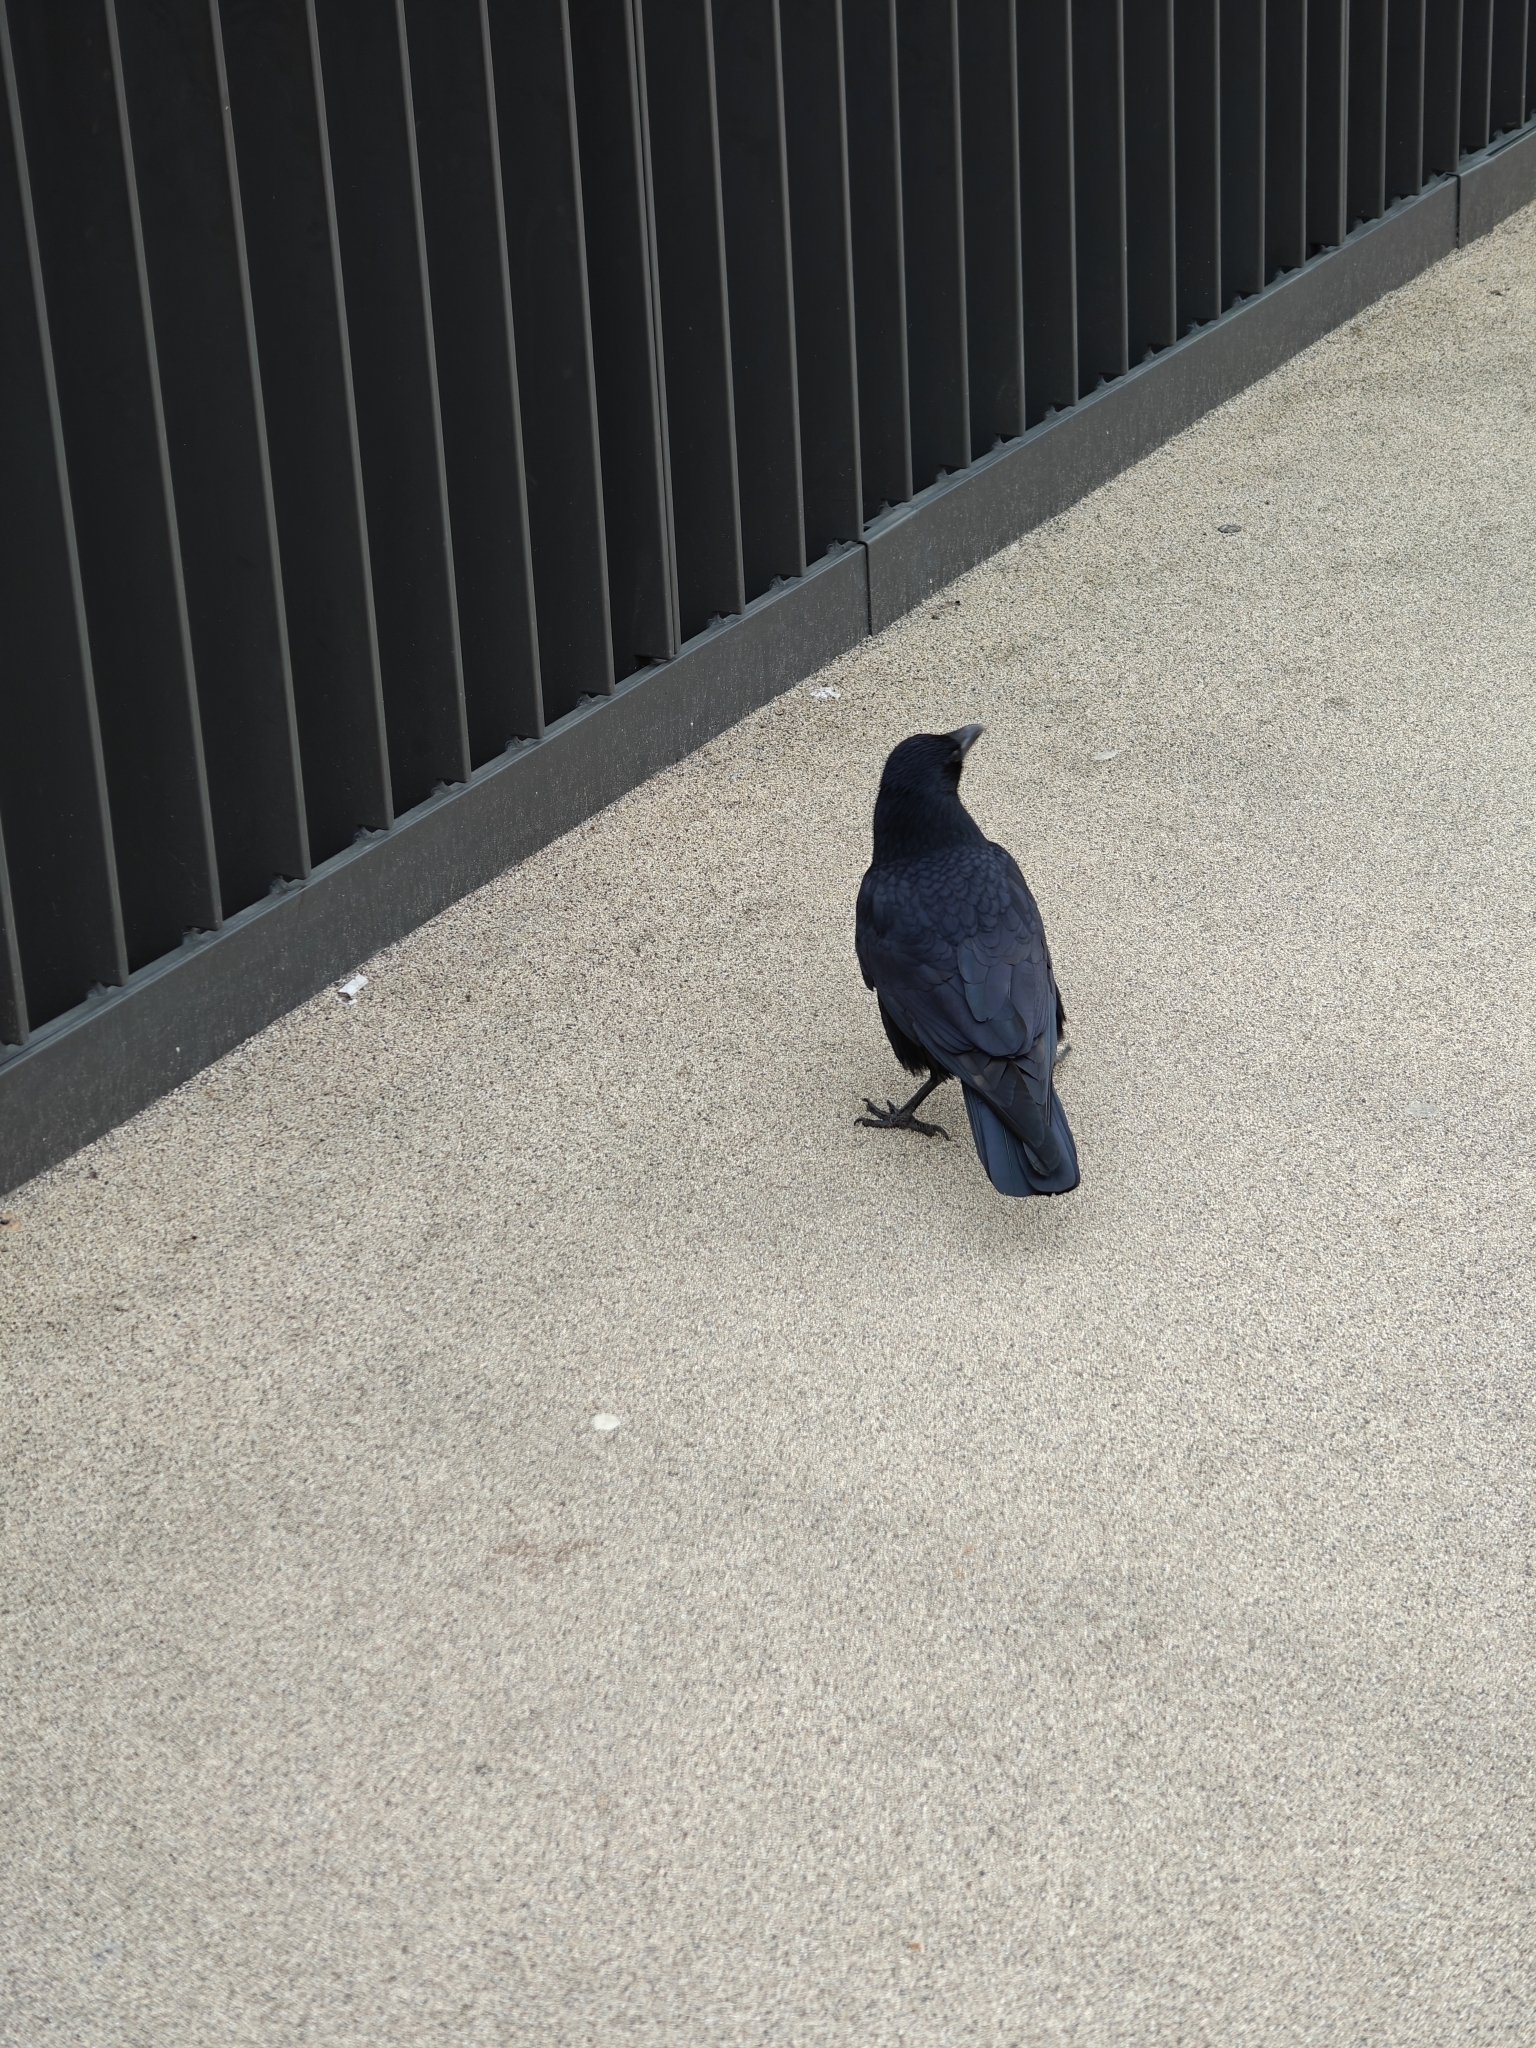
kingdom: Animalia
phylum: Chordata
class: Aves
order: Passeriformes
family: Corvidae
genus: Corvus
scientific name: Corvus corone
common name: Carrion crow
